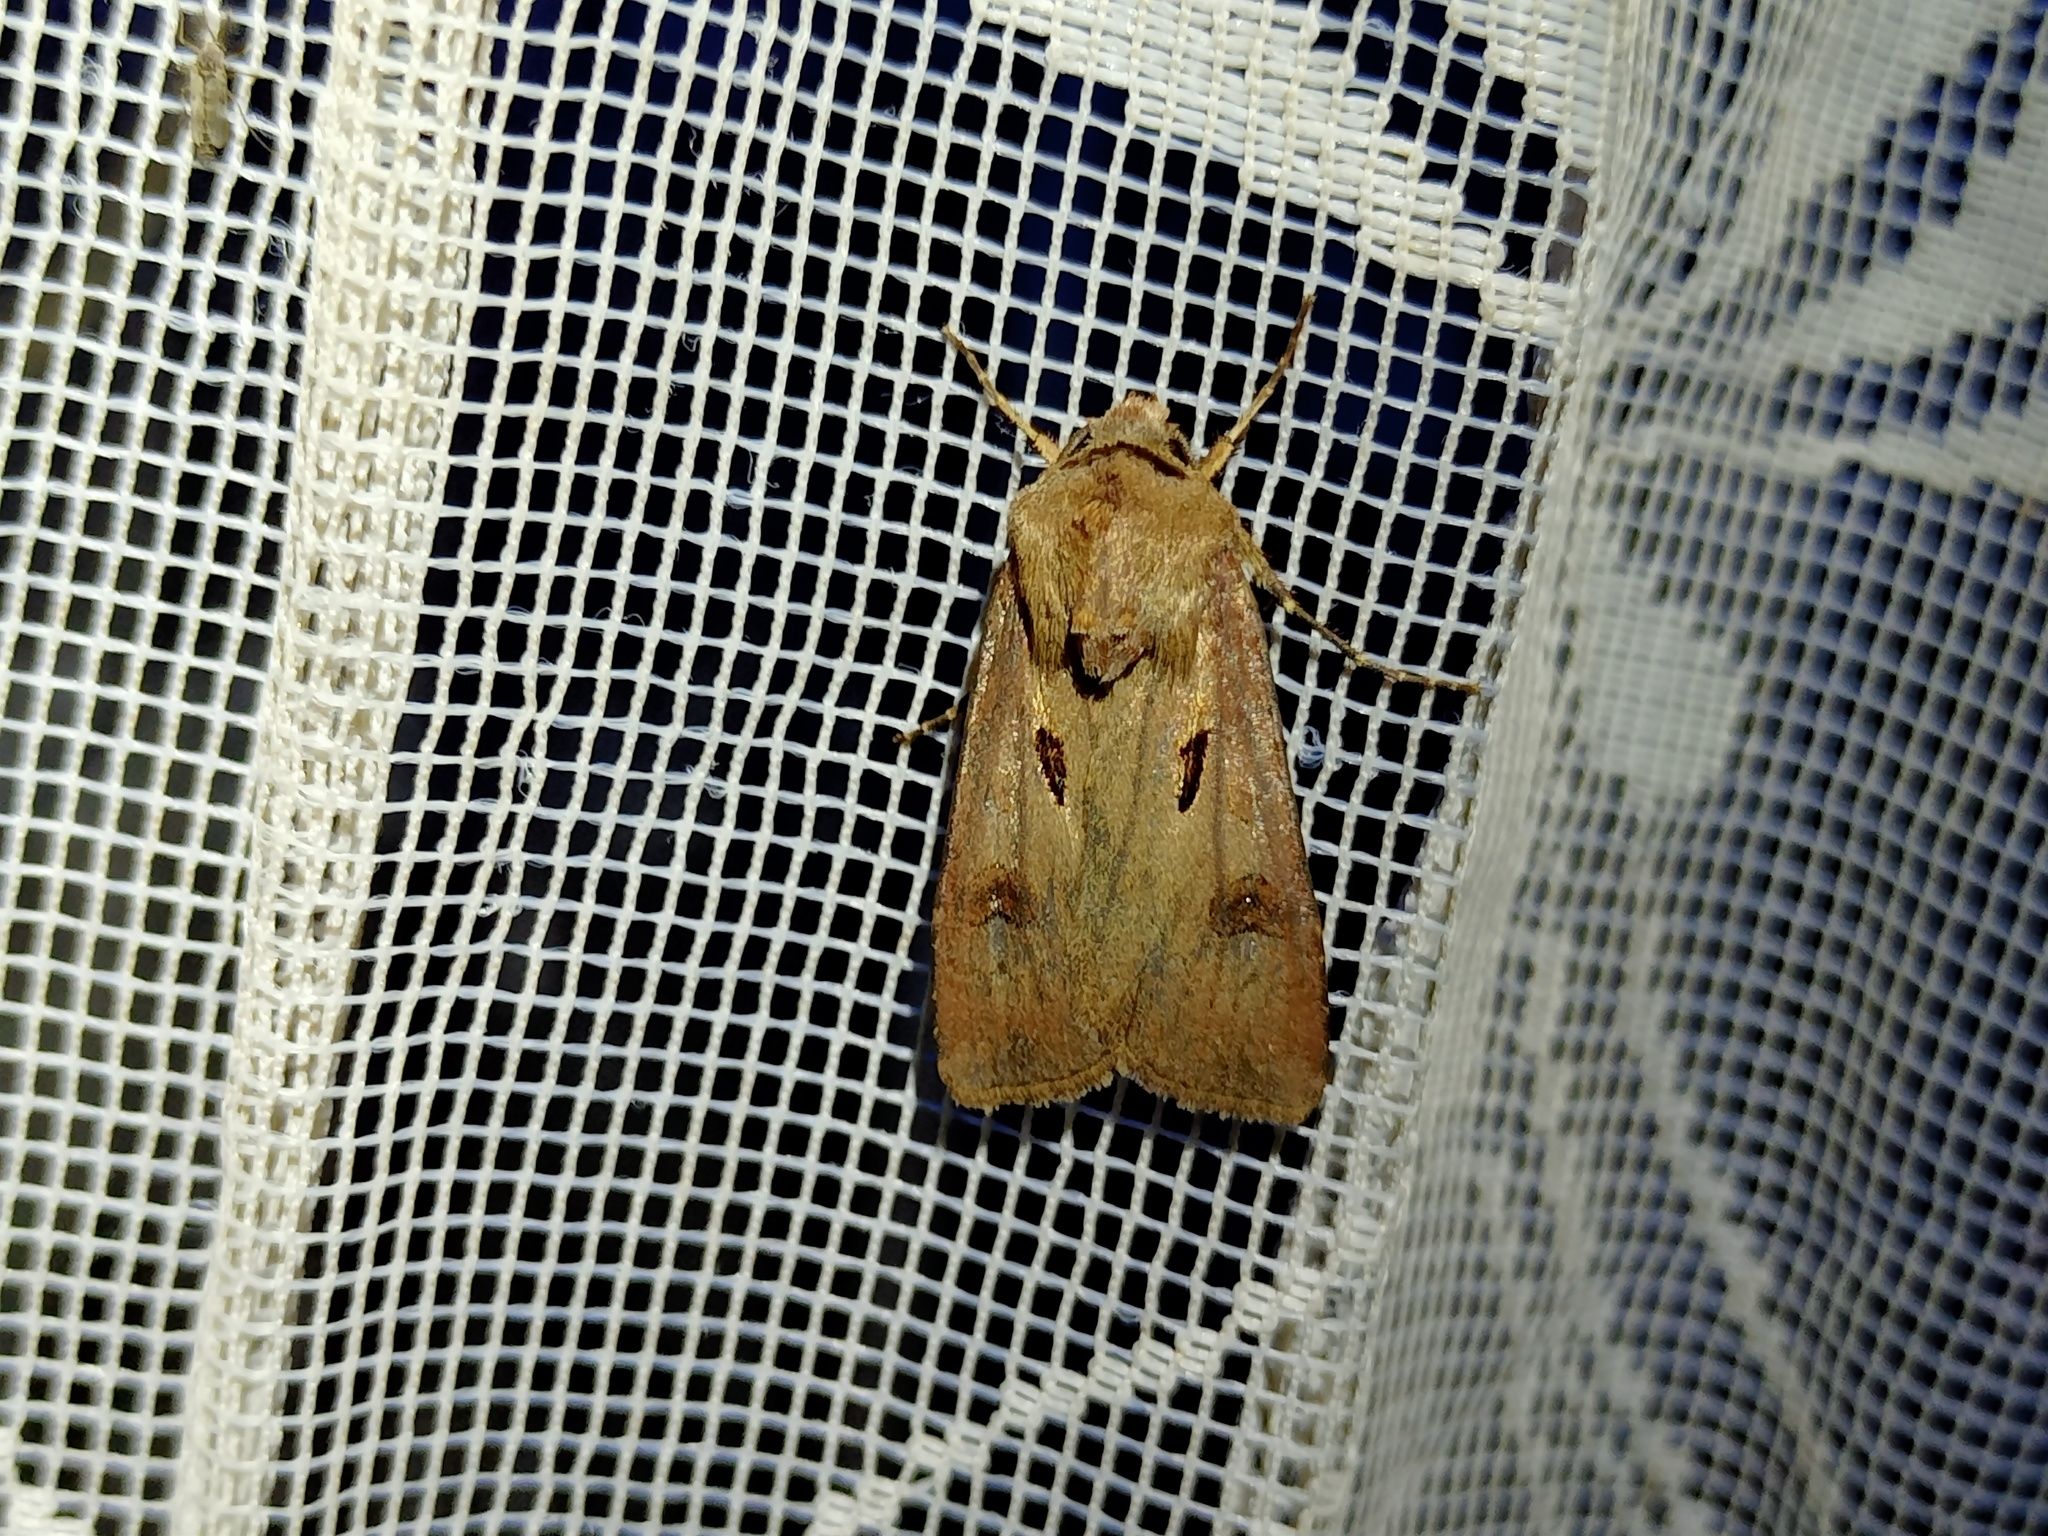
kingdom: Animalia
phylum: Arthropoda
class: Insecta
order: Lepidoptera
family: Noctuidae
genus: Agrotis
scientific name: Agrotis exclamationis
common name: Heart and dart
